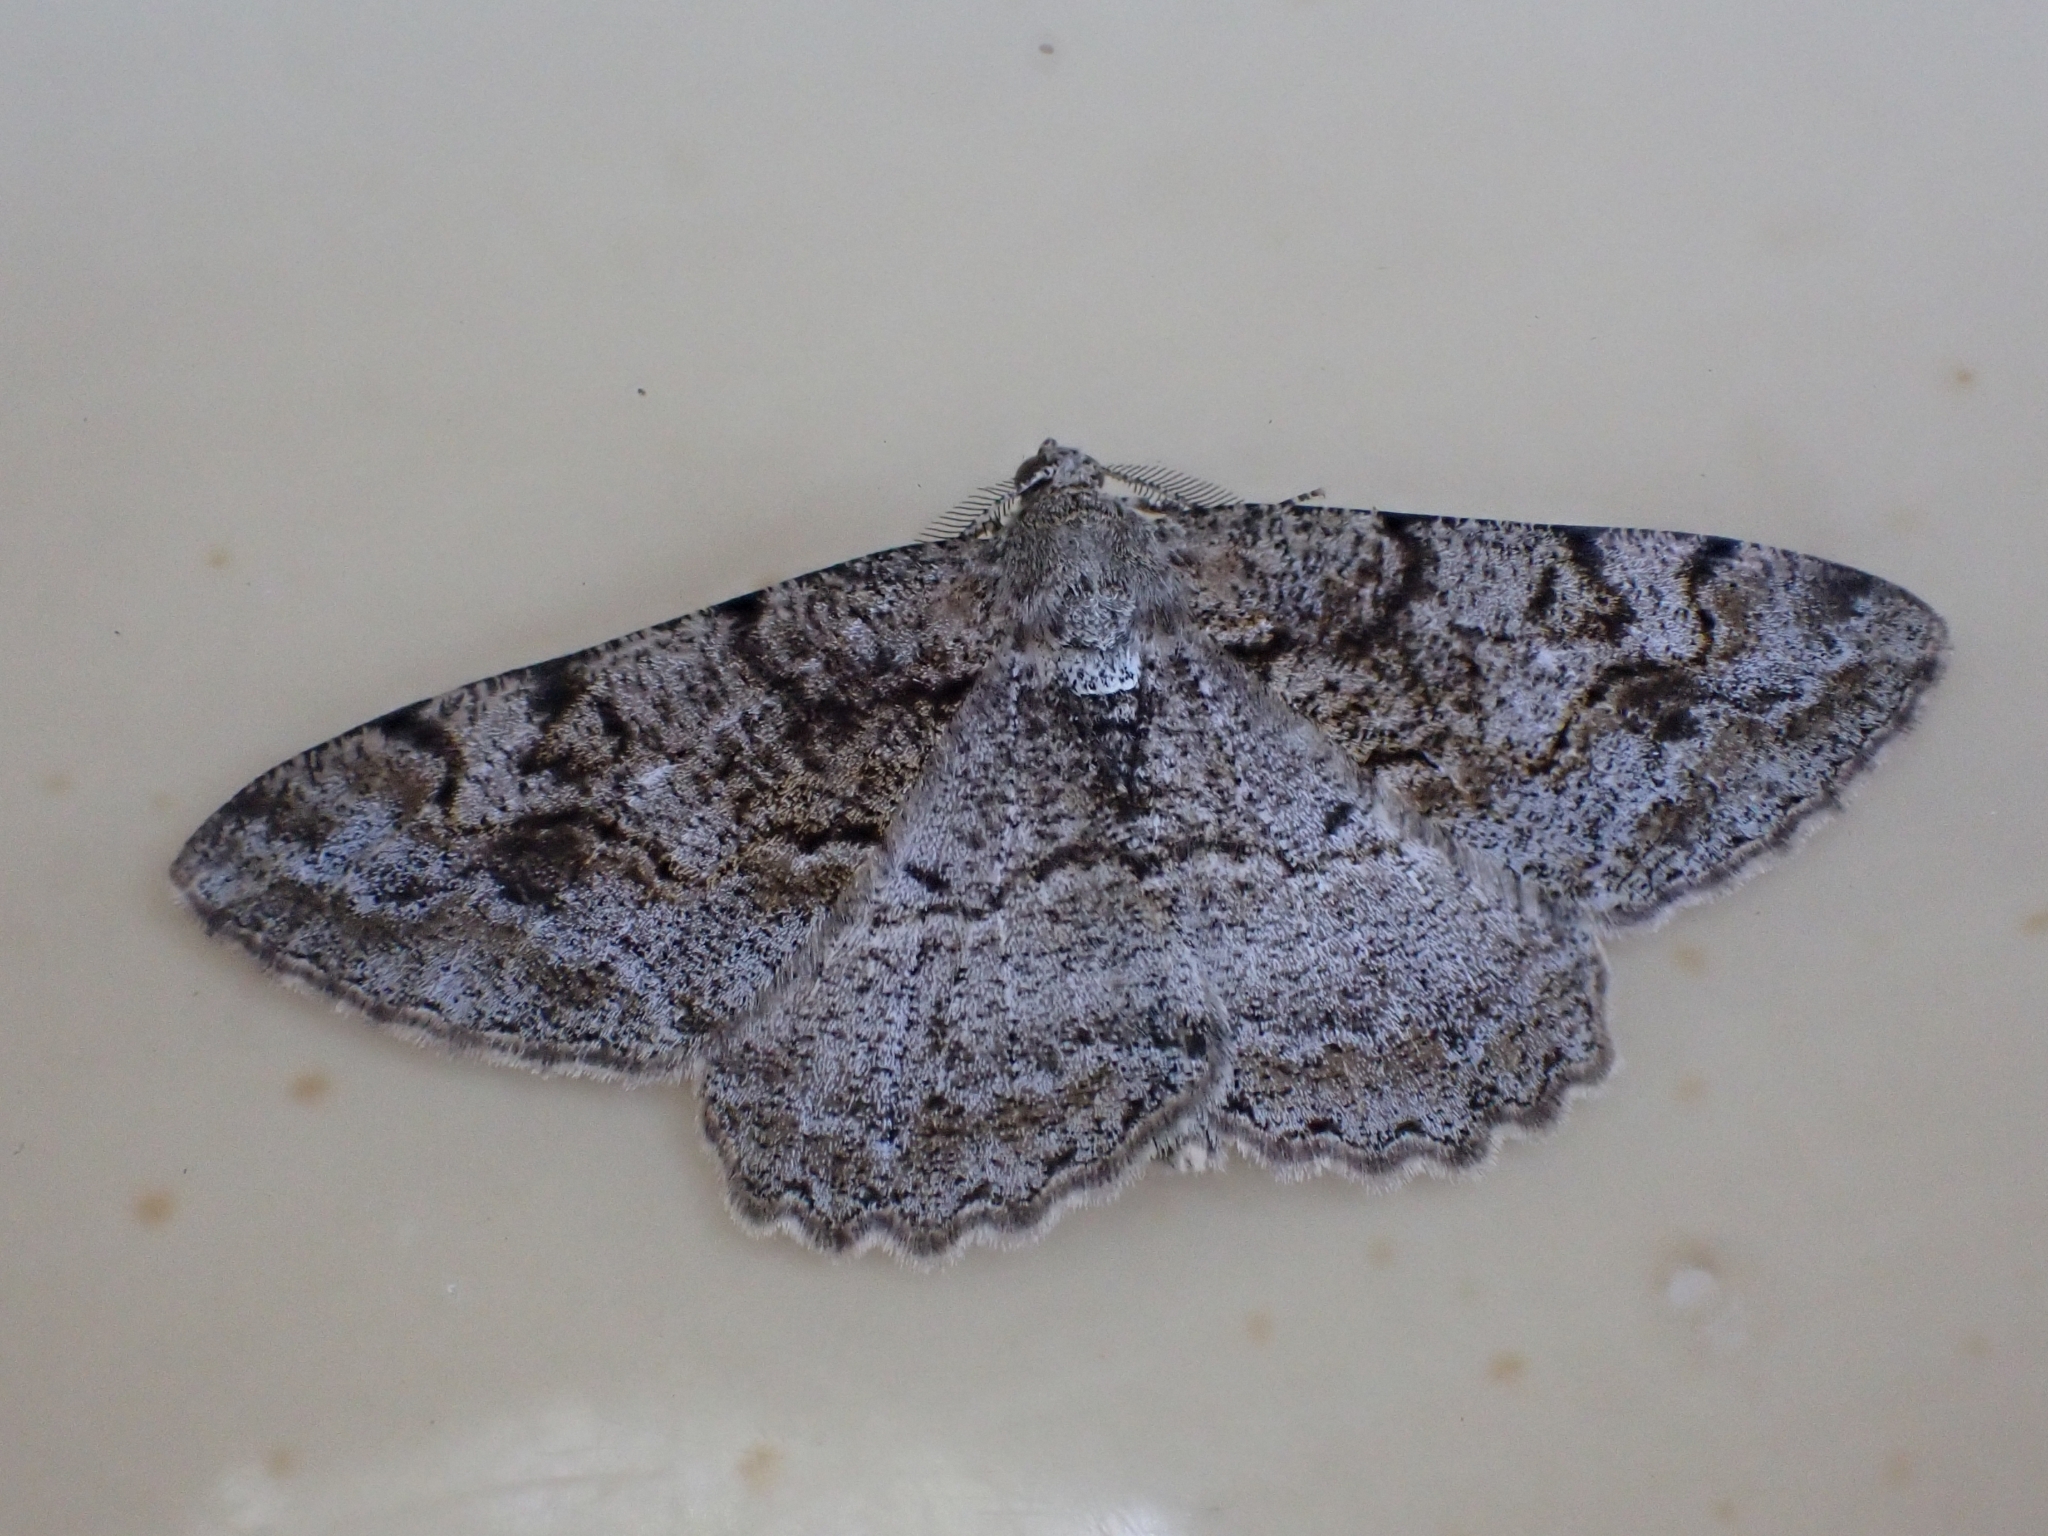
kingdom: Animalia
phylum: Arthropoda
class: Insecta
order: Lepidoptera
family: Geometridae
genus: Alcis
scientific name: Alcis repandata
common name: Mottled beauty
